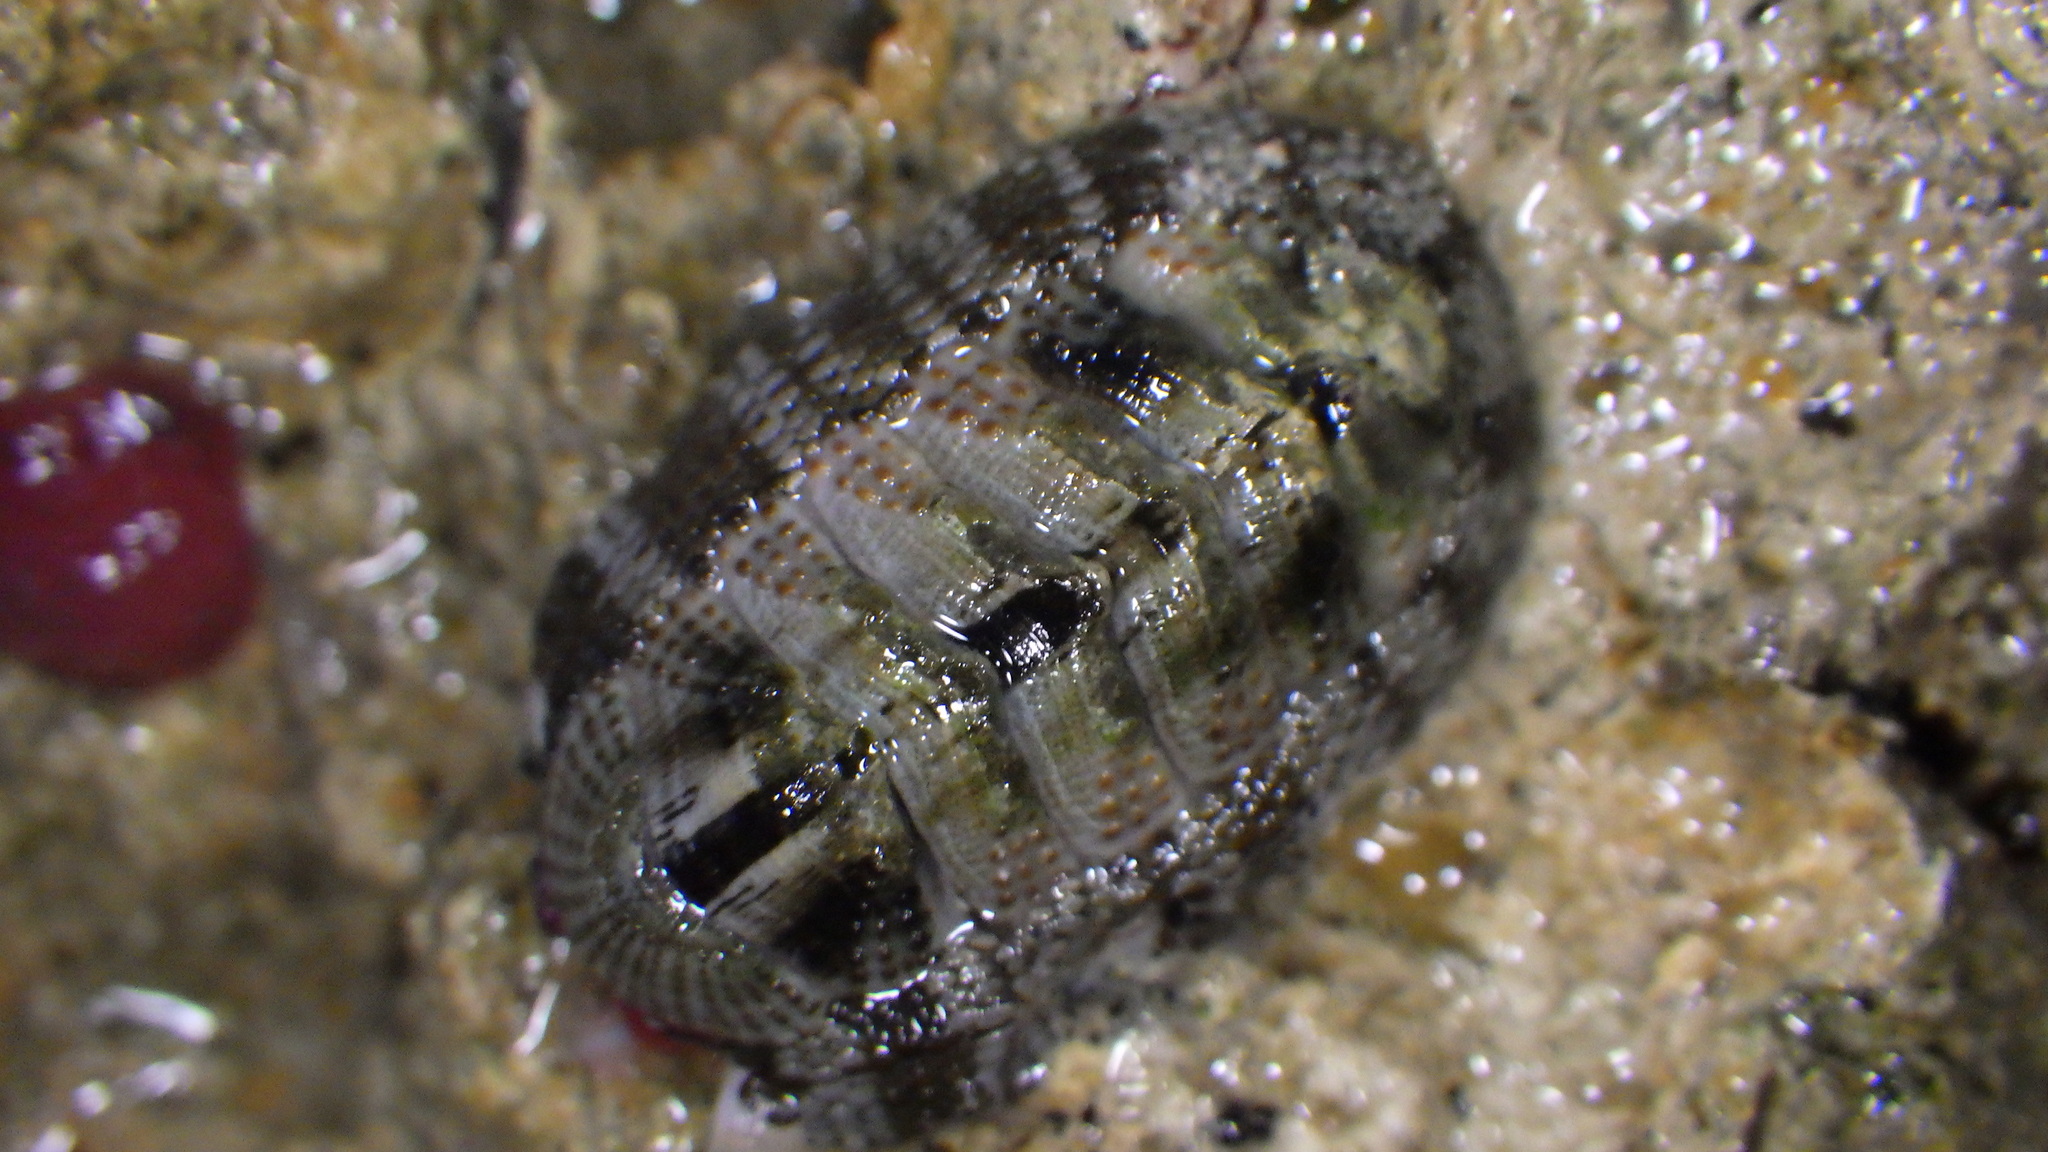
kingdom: Animalia
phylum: Mollusca
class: Polyplacophora
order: Chitonida
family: Chitonidae
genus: Sypharochiton
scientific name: Sypharochiton pelliserpentis
